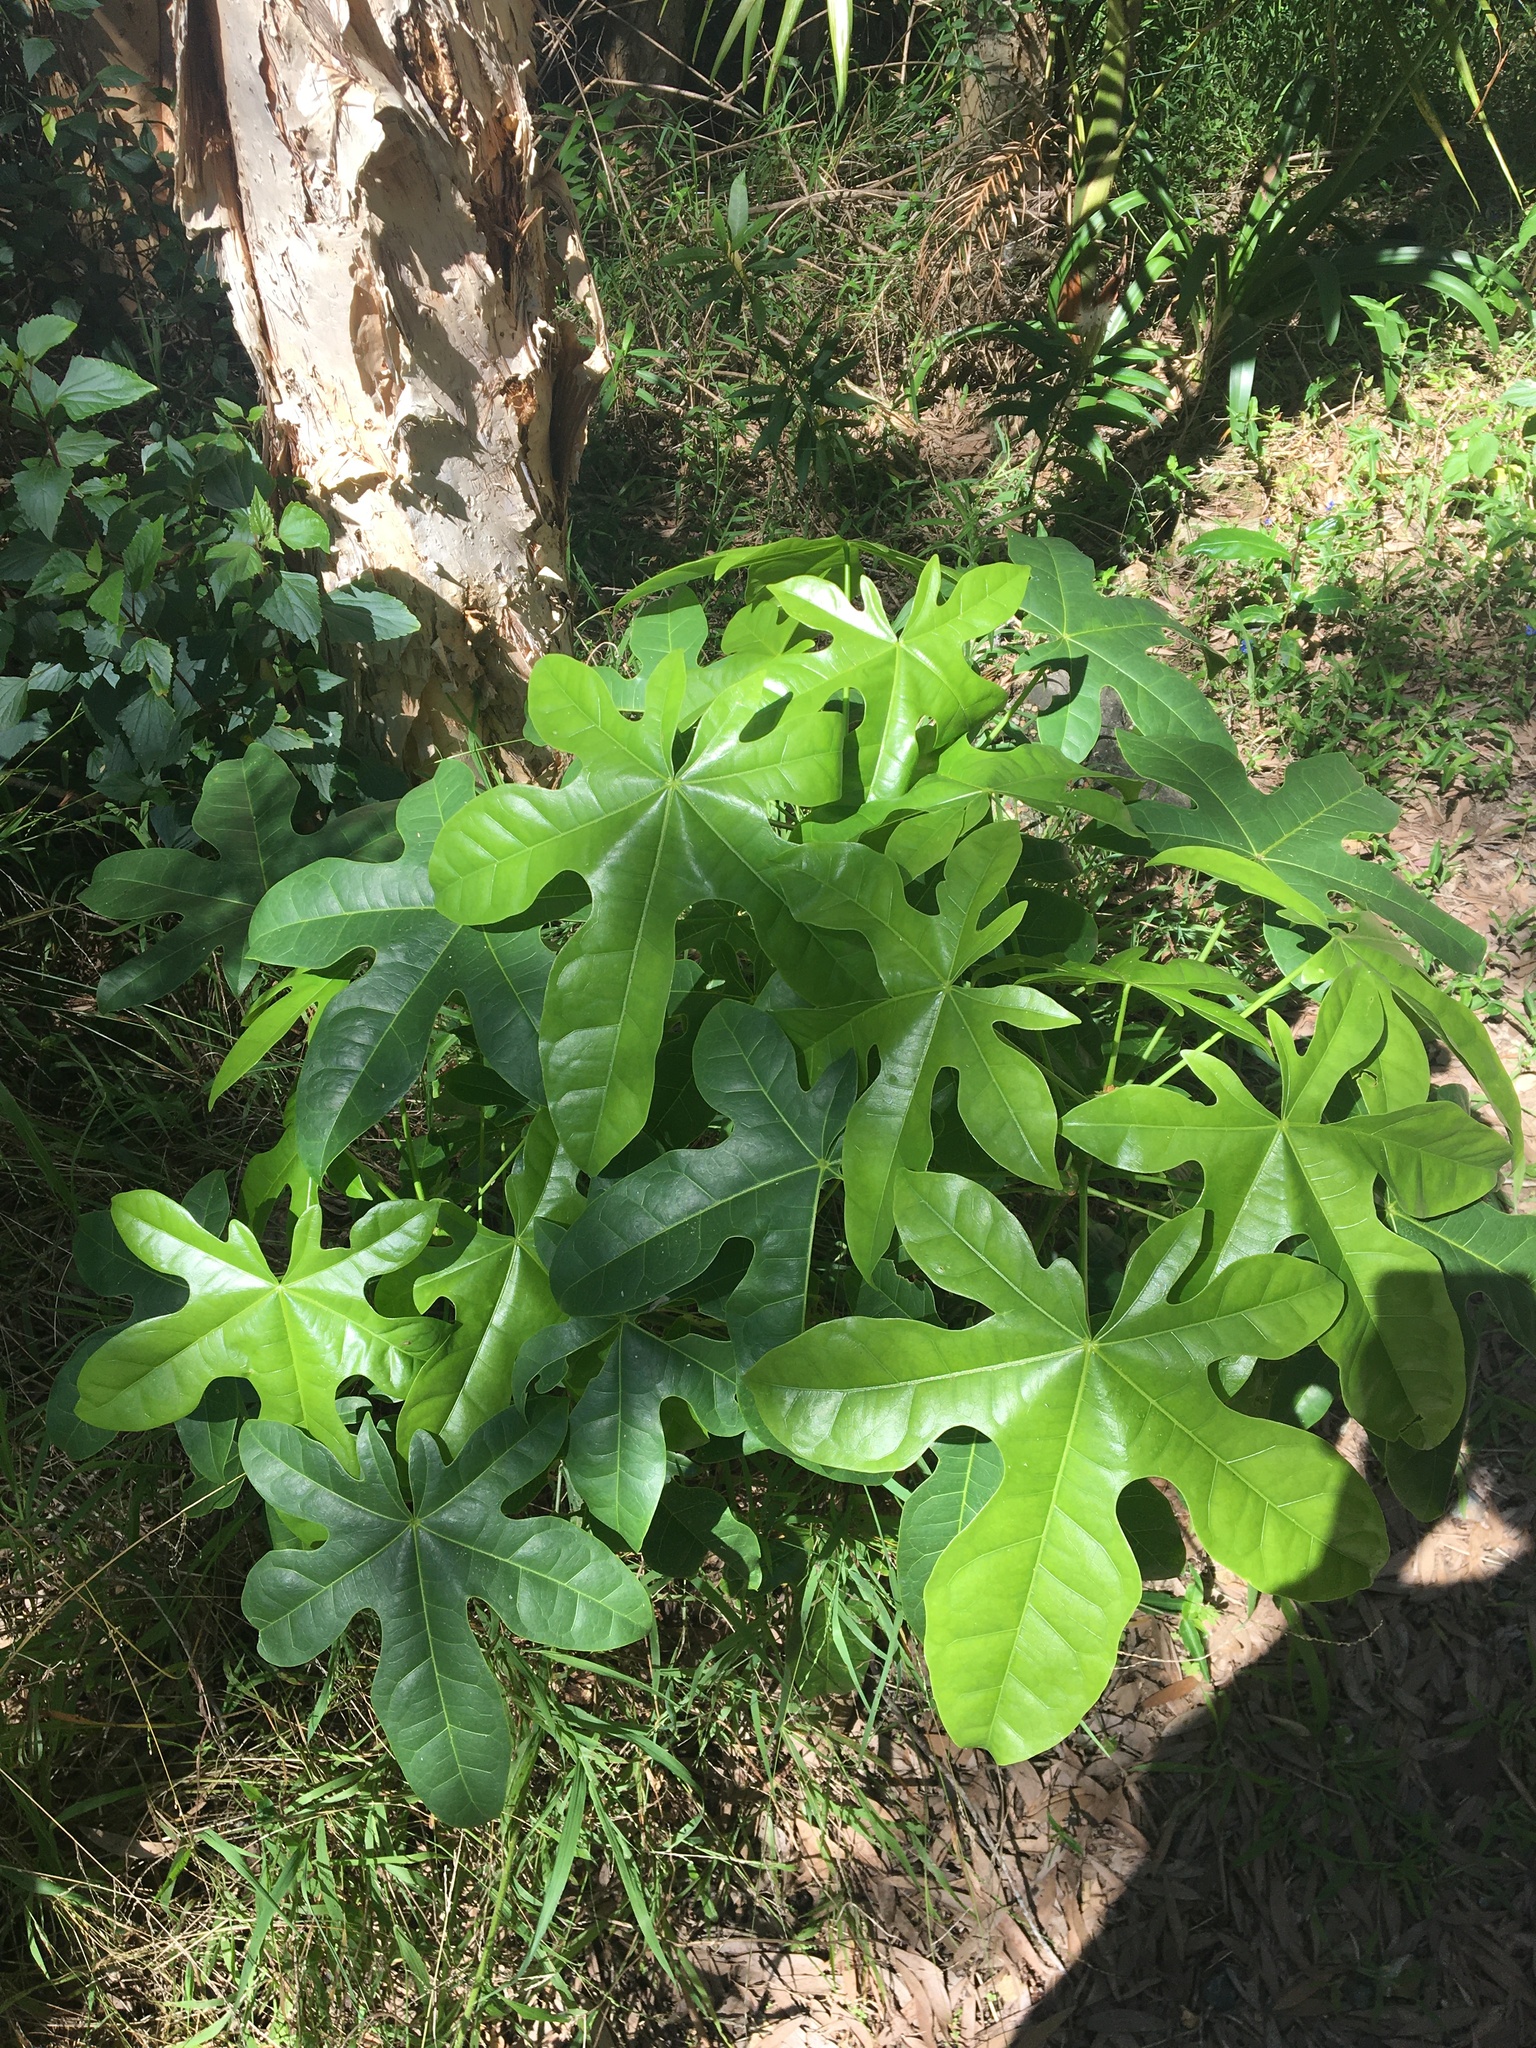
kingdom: Plantae
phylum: Tracheophyta
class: Magnoliopsida
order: Malvales
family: Malvaceae
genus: Brachychiton
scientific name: Brachychiton acerifolius
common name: Illawarra flame tree
